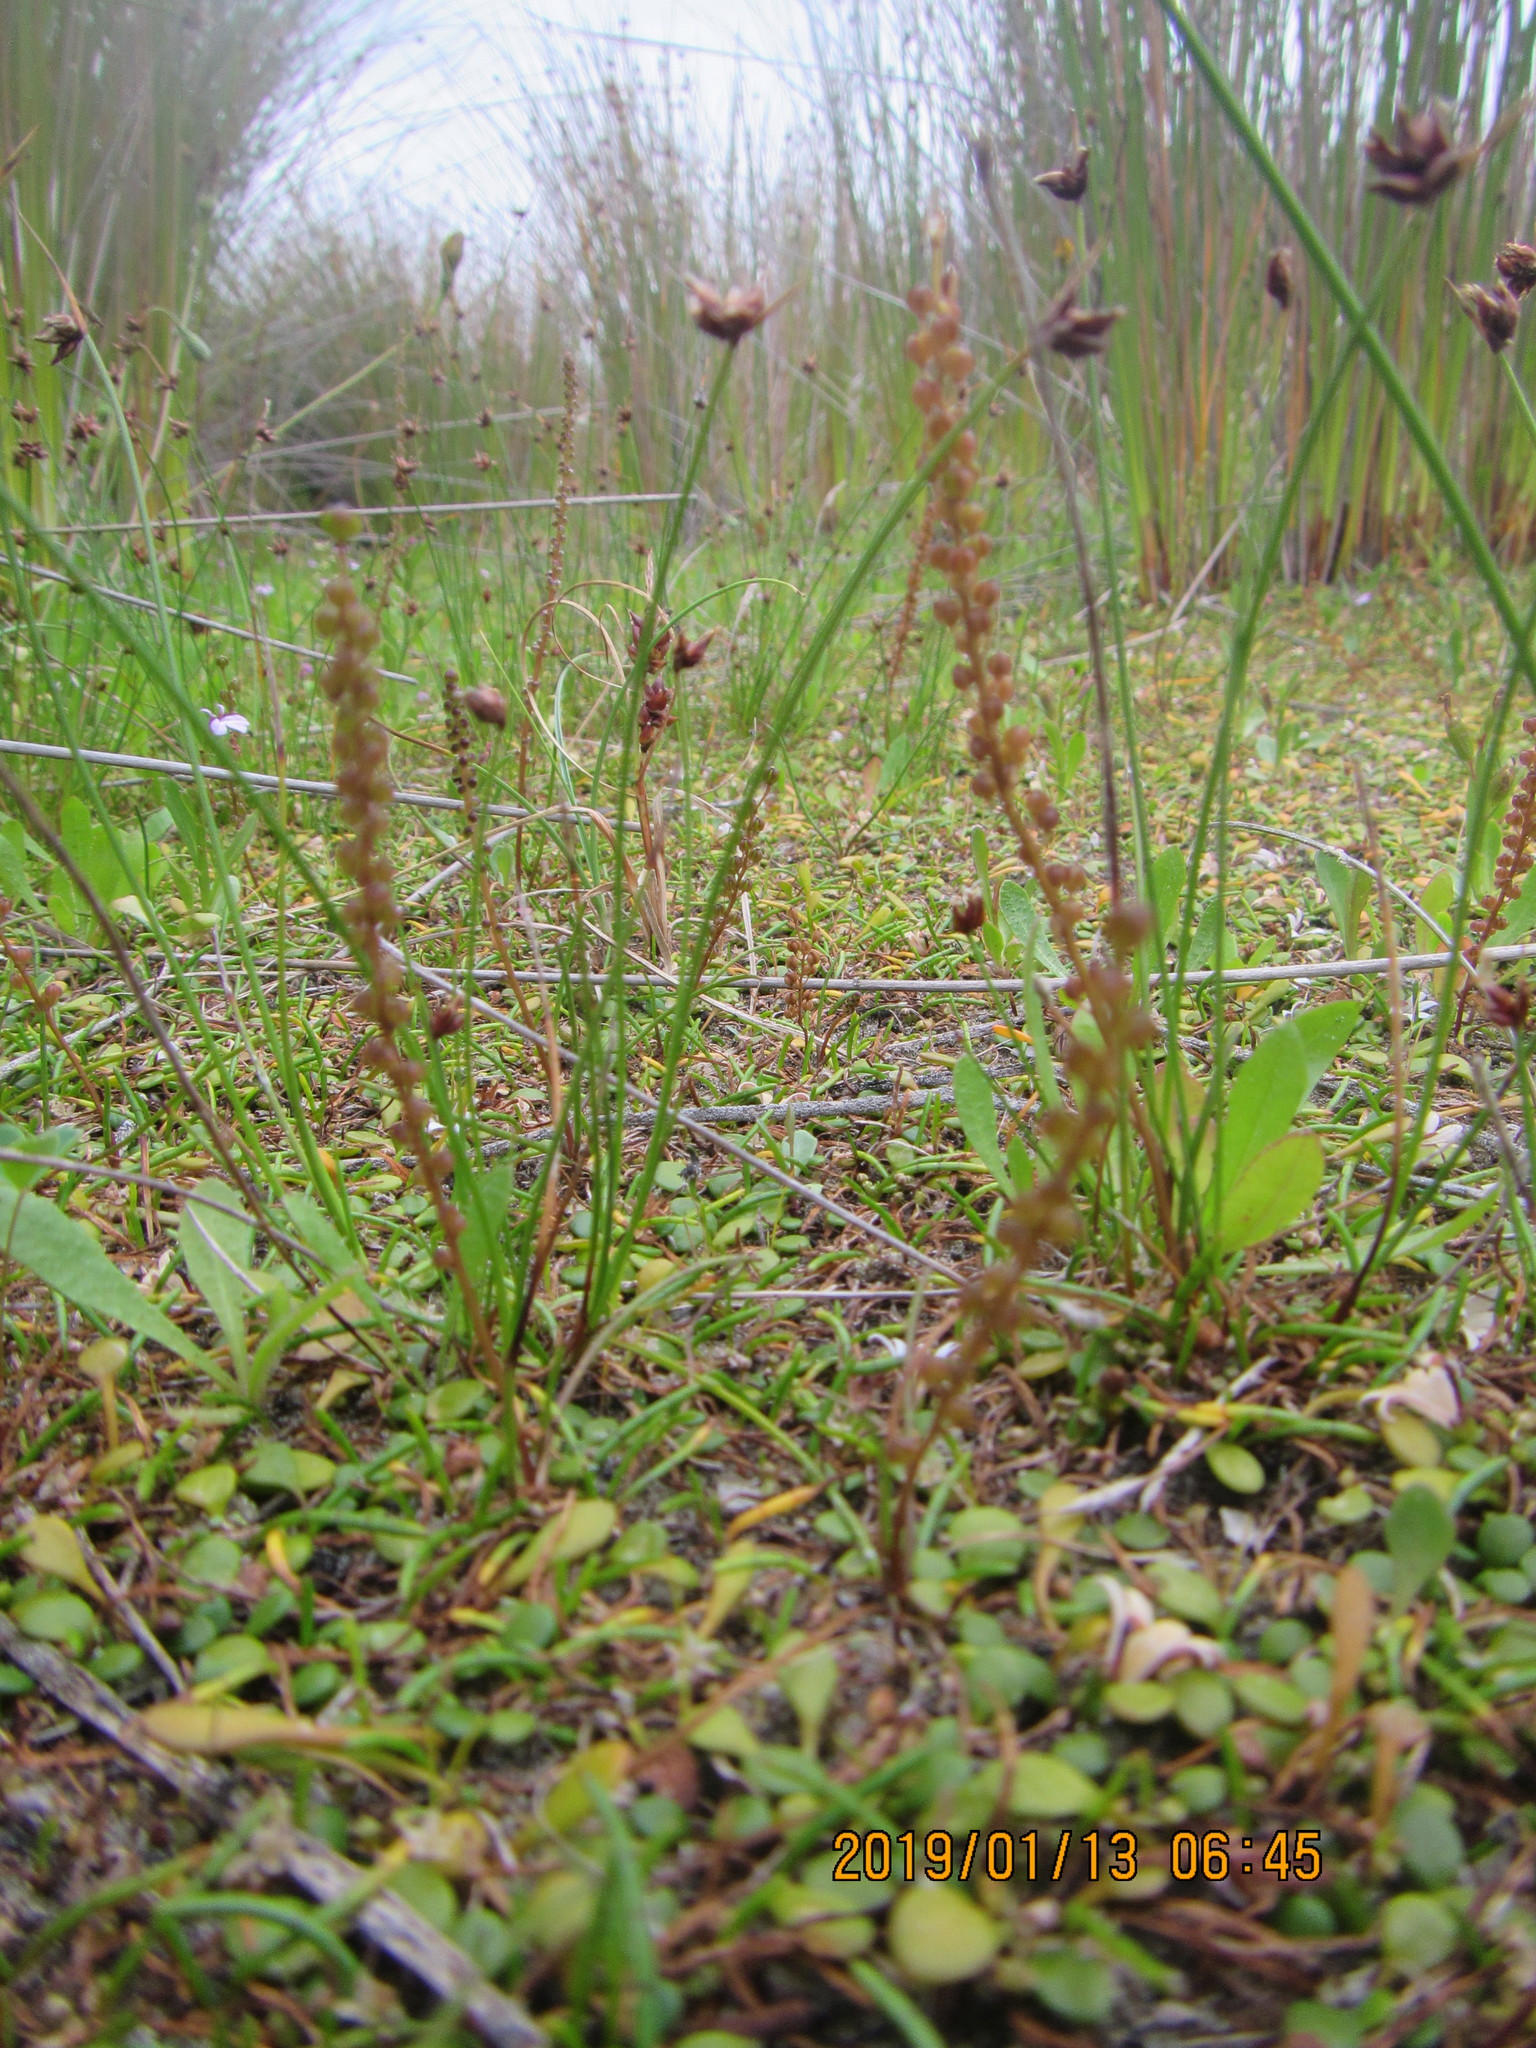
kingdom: Plantae
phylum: Tracheophyta
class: Liliopsida
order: Alismatales
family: Juncaginaceae
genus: Triglochin
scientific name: Triglochin striata
